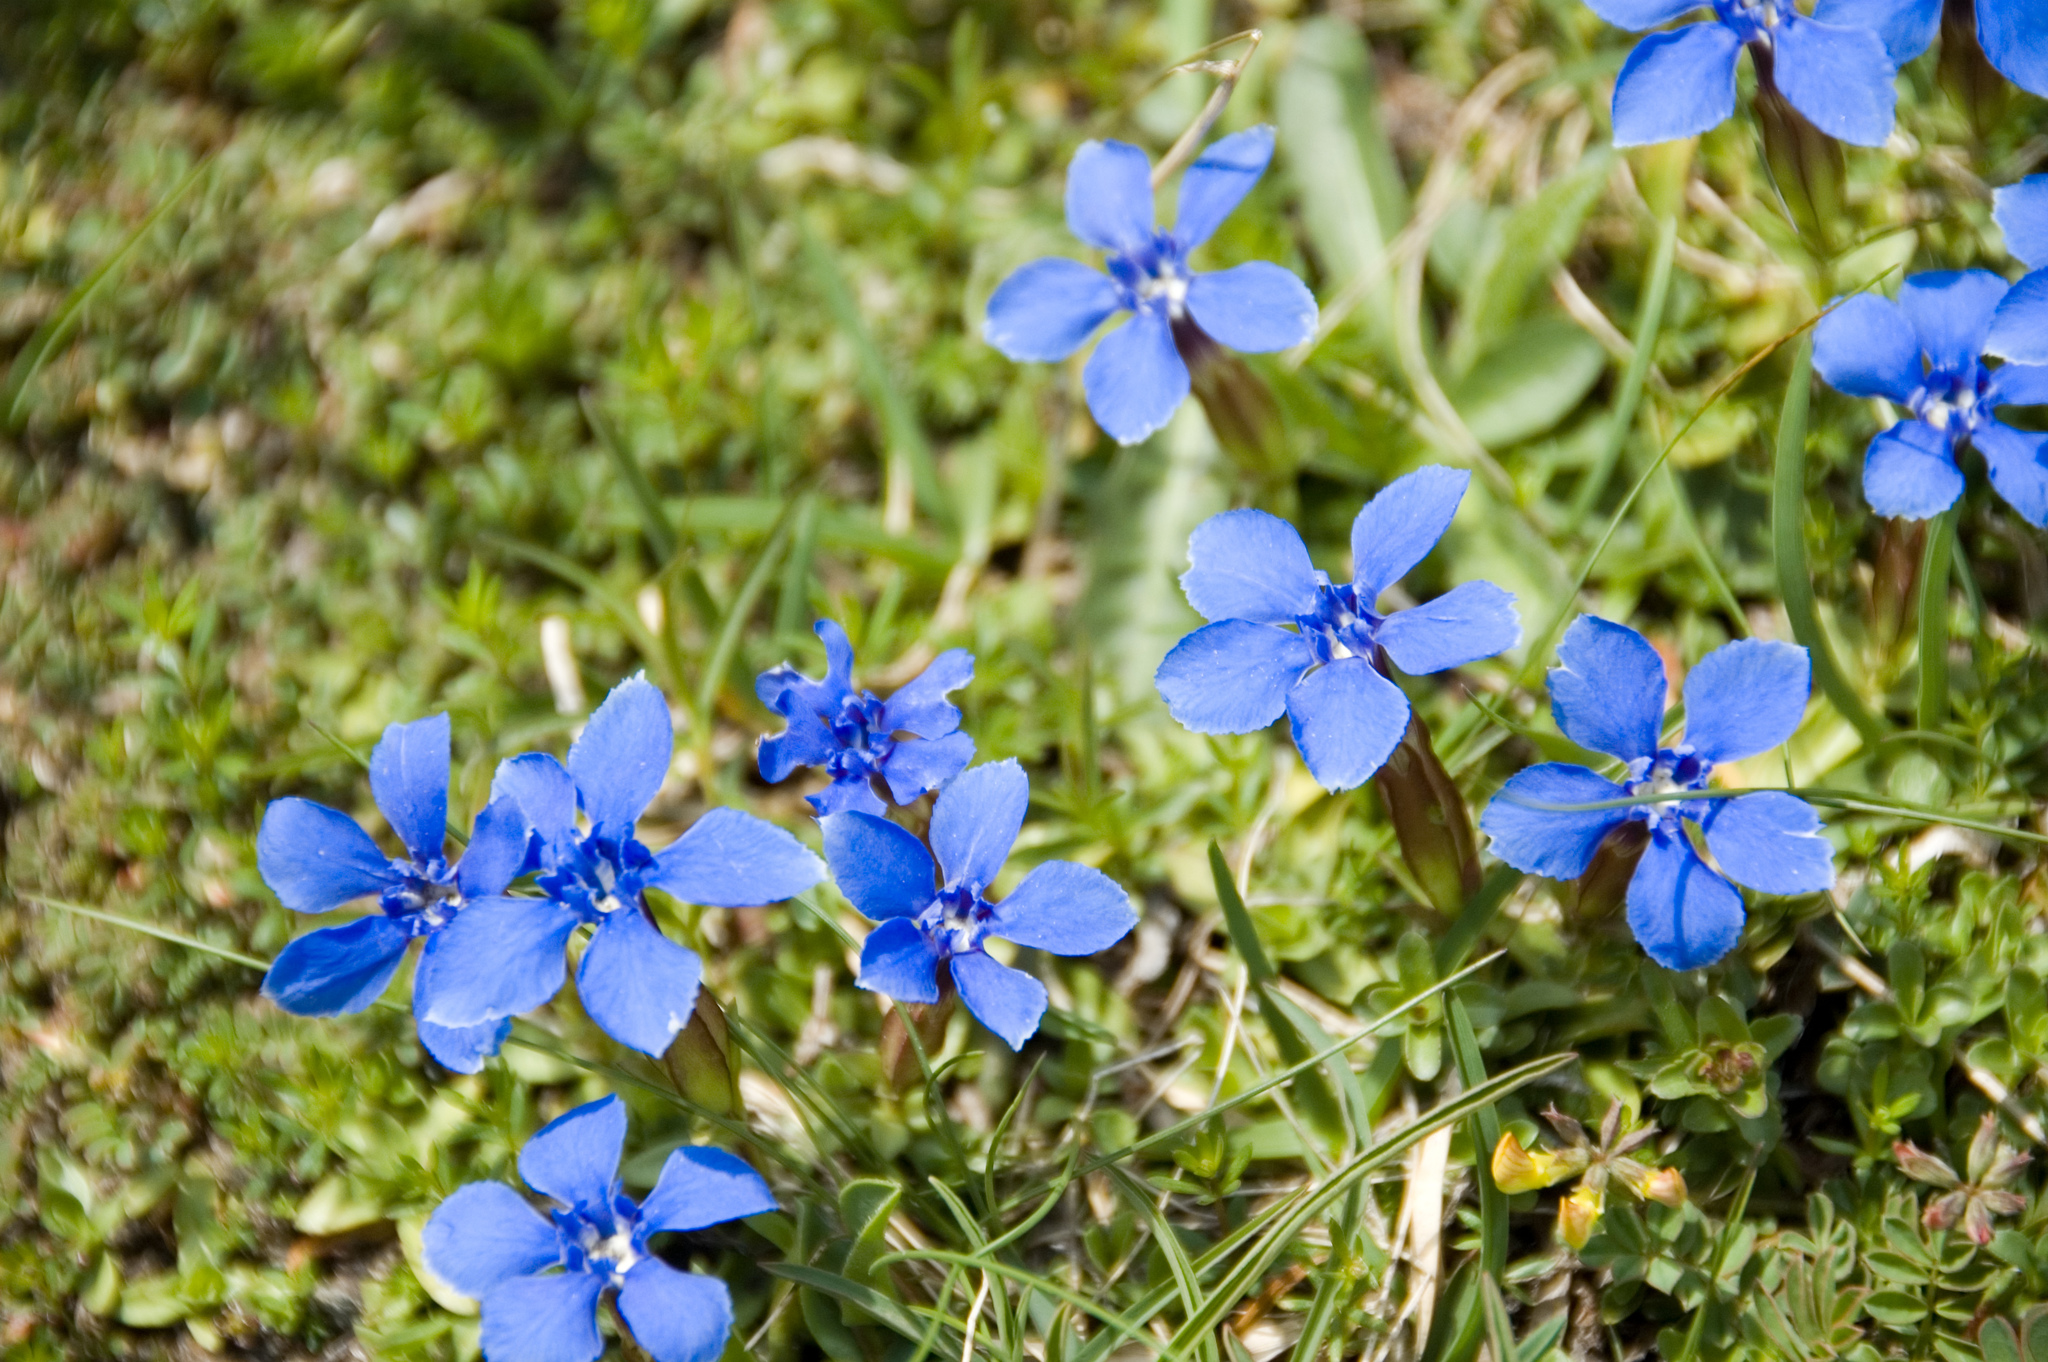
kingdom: Plantae
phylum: Tracheophyta
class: Magnoliopsida
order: Gentianales
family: Gentianaceae
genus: Gentiana
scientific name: Gentiana verna
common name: Spring gentian
